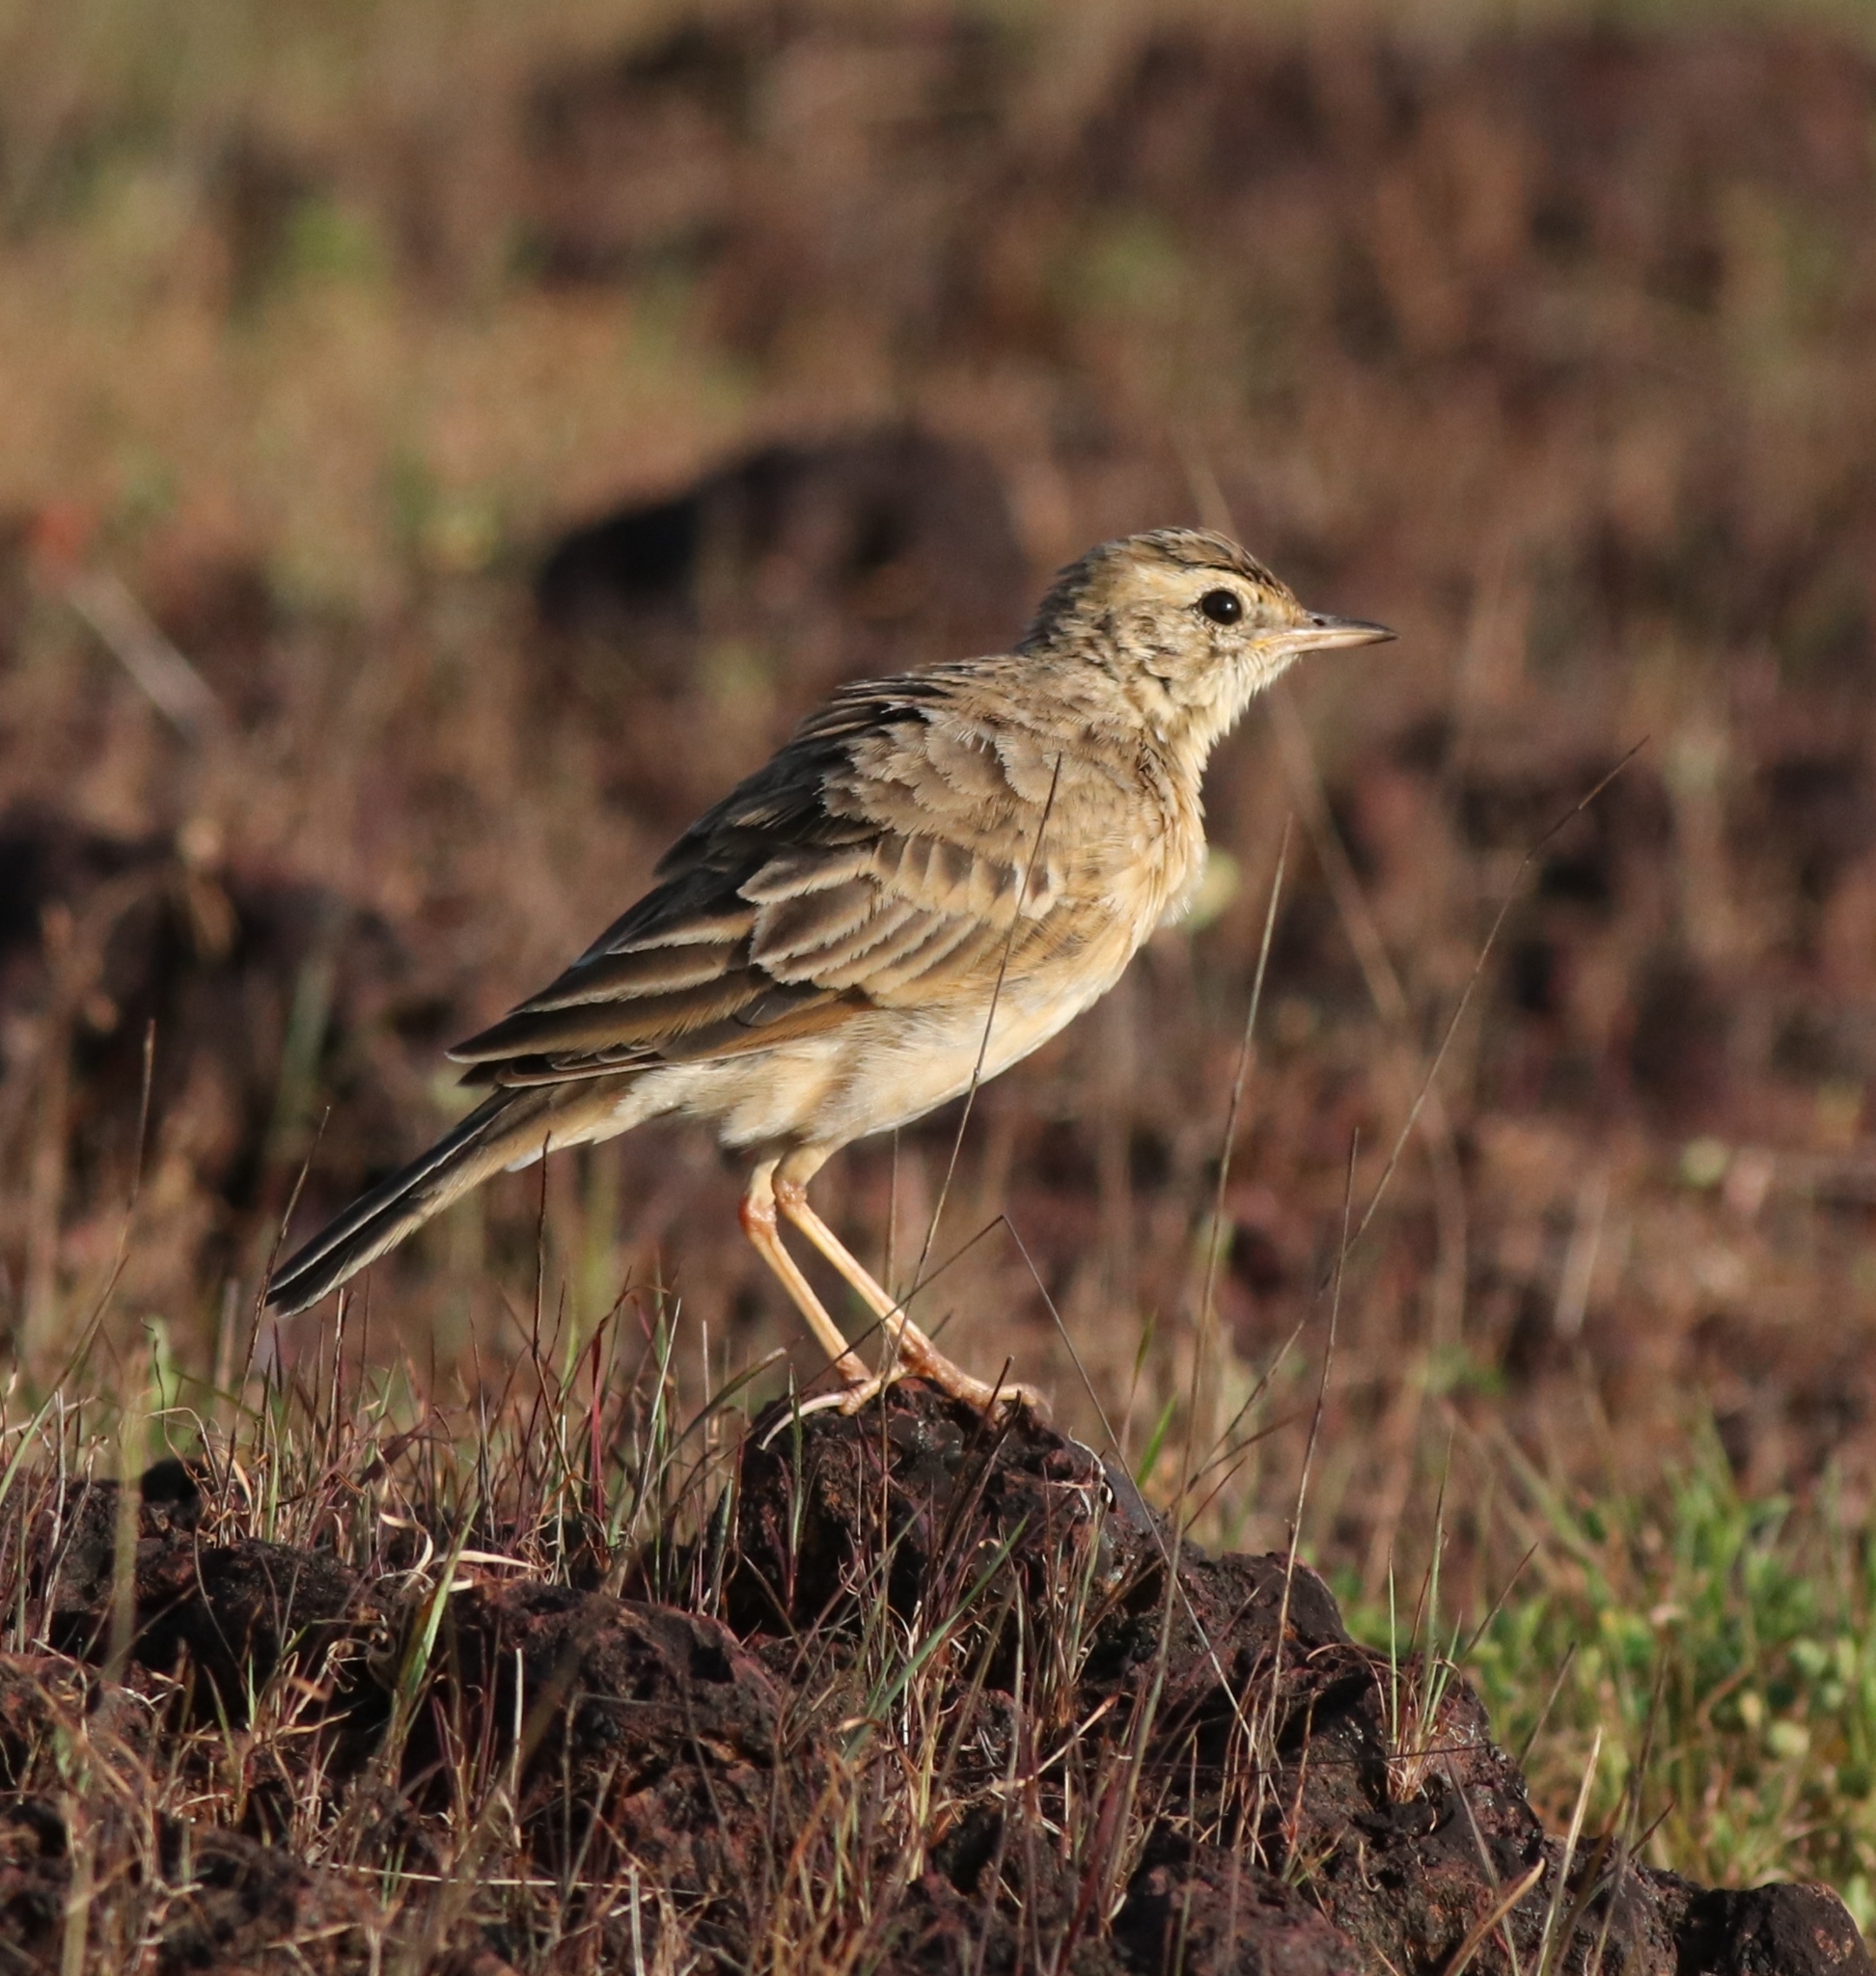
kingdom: Animalia
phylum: Chordata
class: Aves
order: Passeriformes
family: Motacillidae
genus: Anthus
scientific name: Anthus rufulus
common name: Paddyfield pipit
